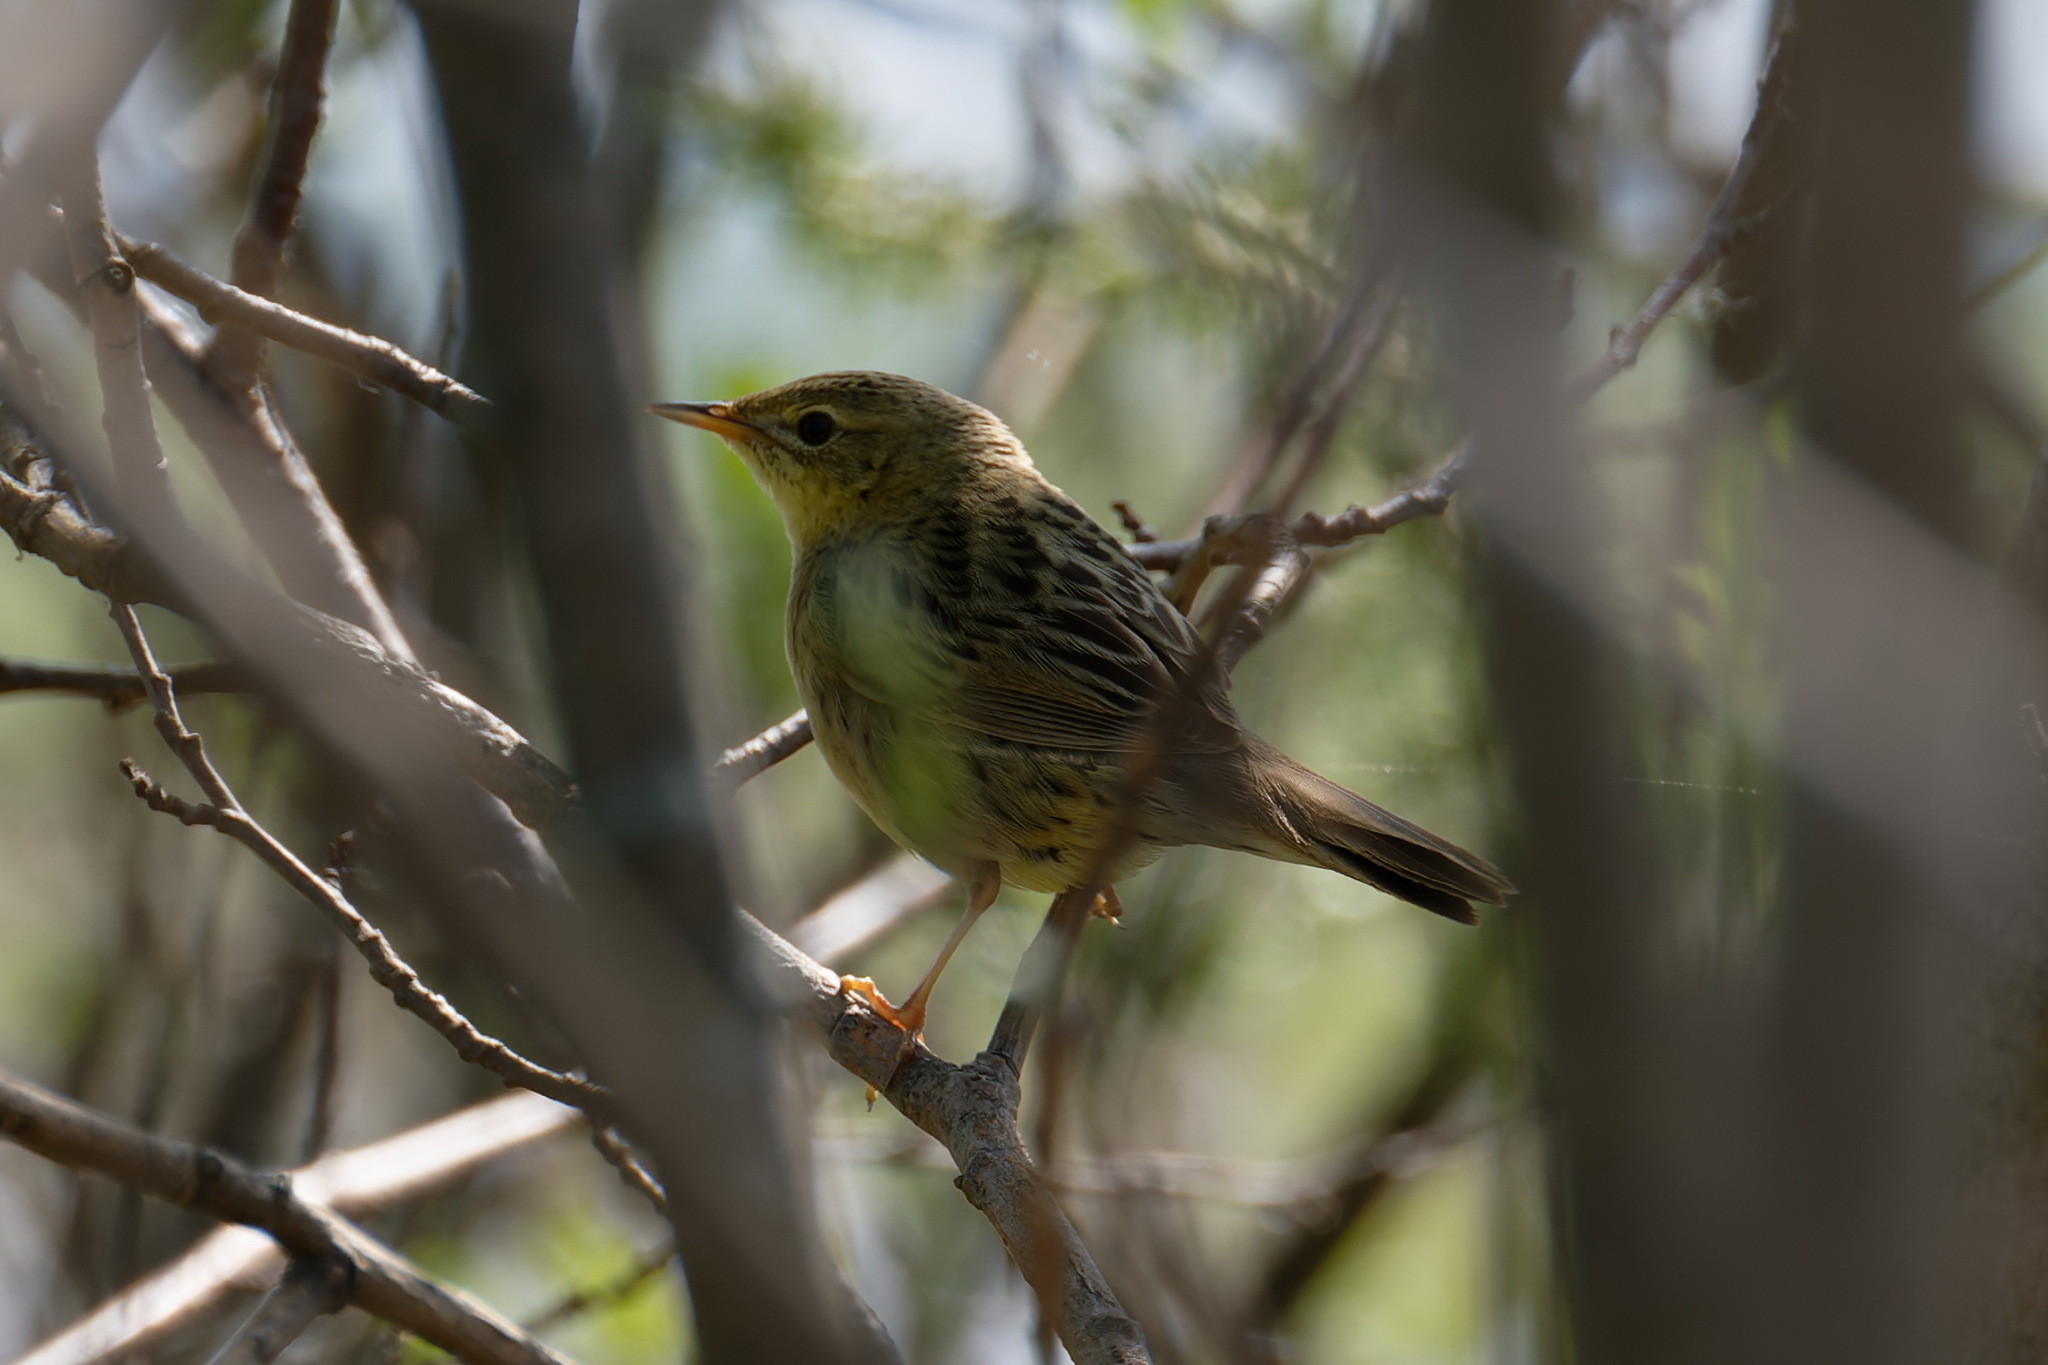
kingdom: Animalia
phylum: Chordata
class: Aves
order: Passeriformes
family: Locustellidae
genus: Locustella
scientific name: Locustella naevia
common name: Common grasshopper warbler
